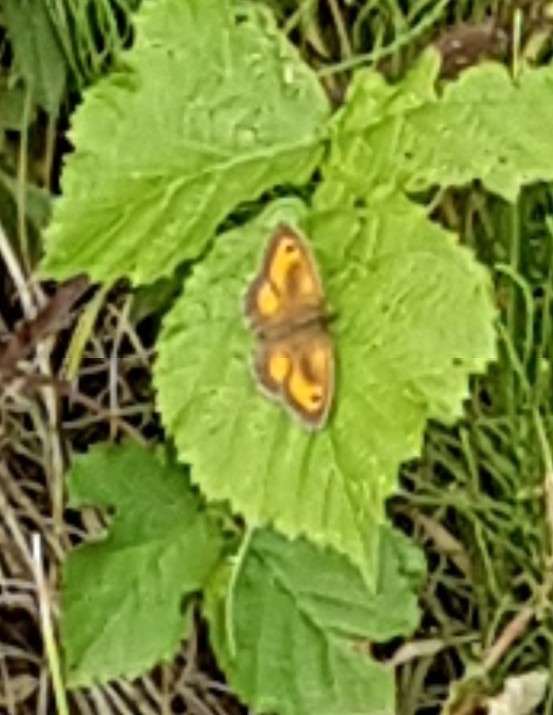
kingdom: Animalia
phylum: Arthropoda
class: Insecta
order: Lepidoptera
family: Nymphalidae
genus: Pyronia
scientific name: Pyronia tithonus
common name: Gatekeeper
